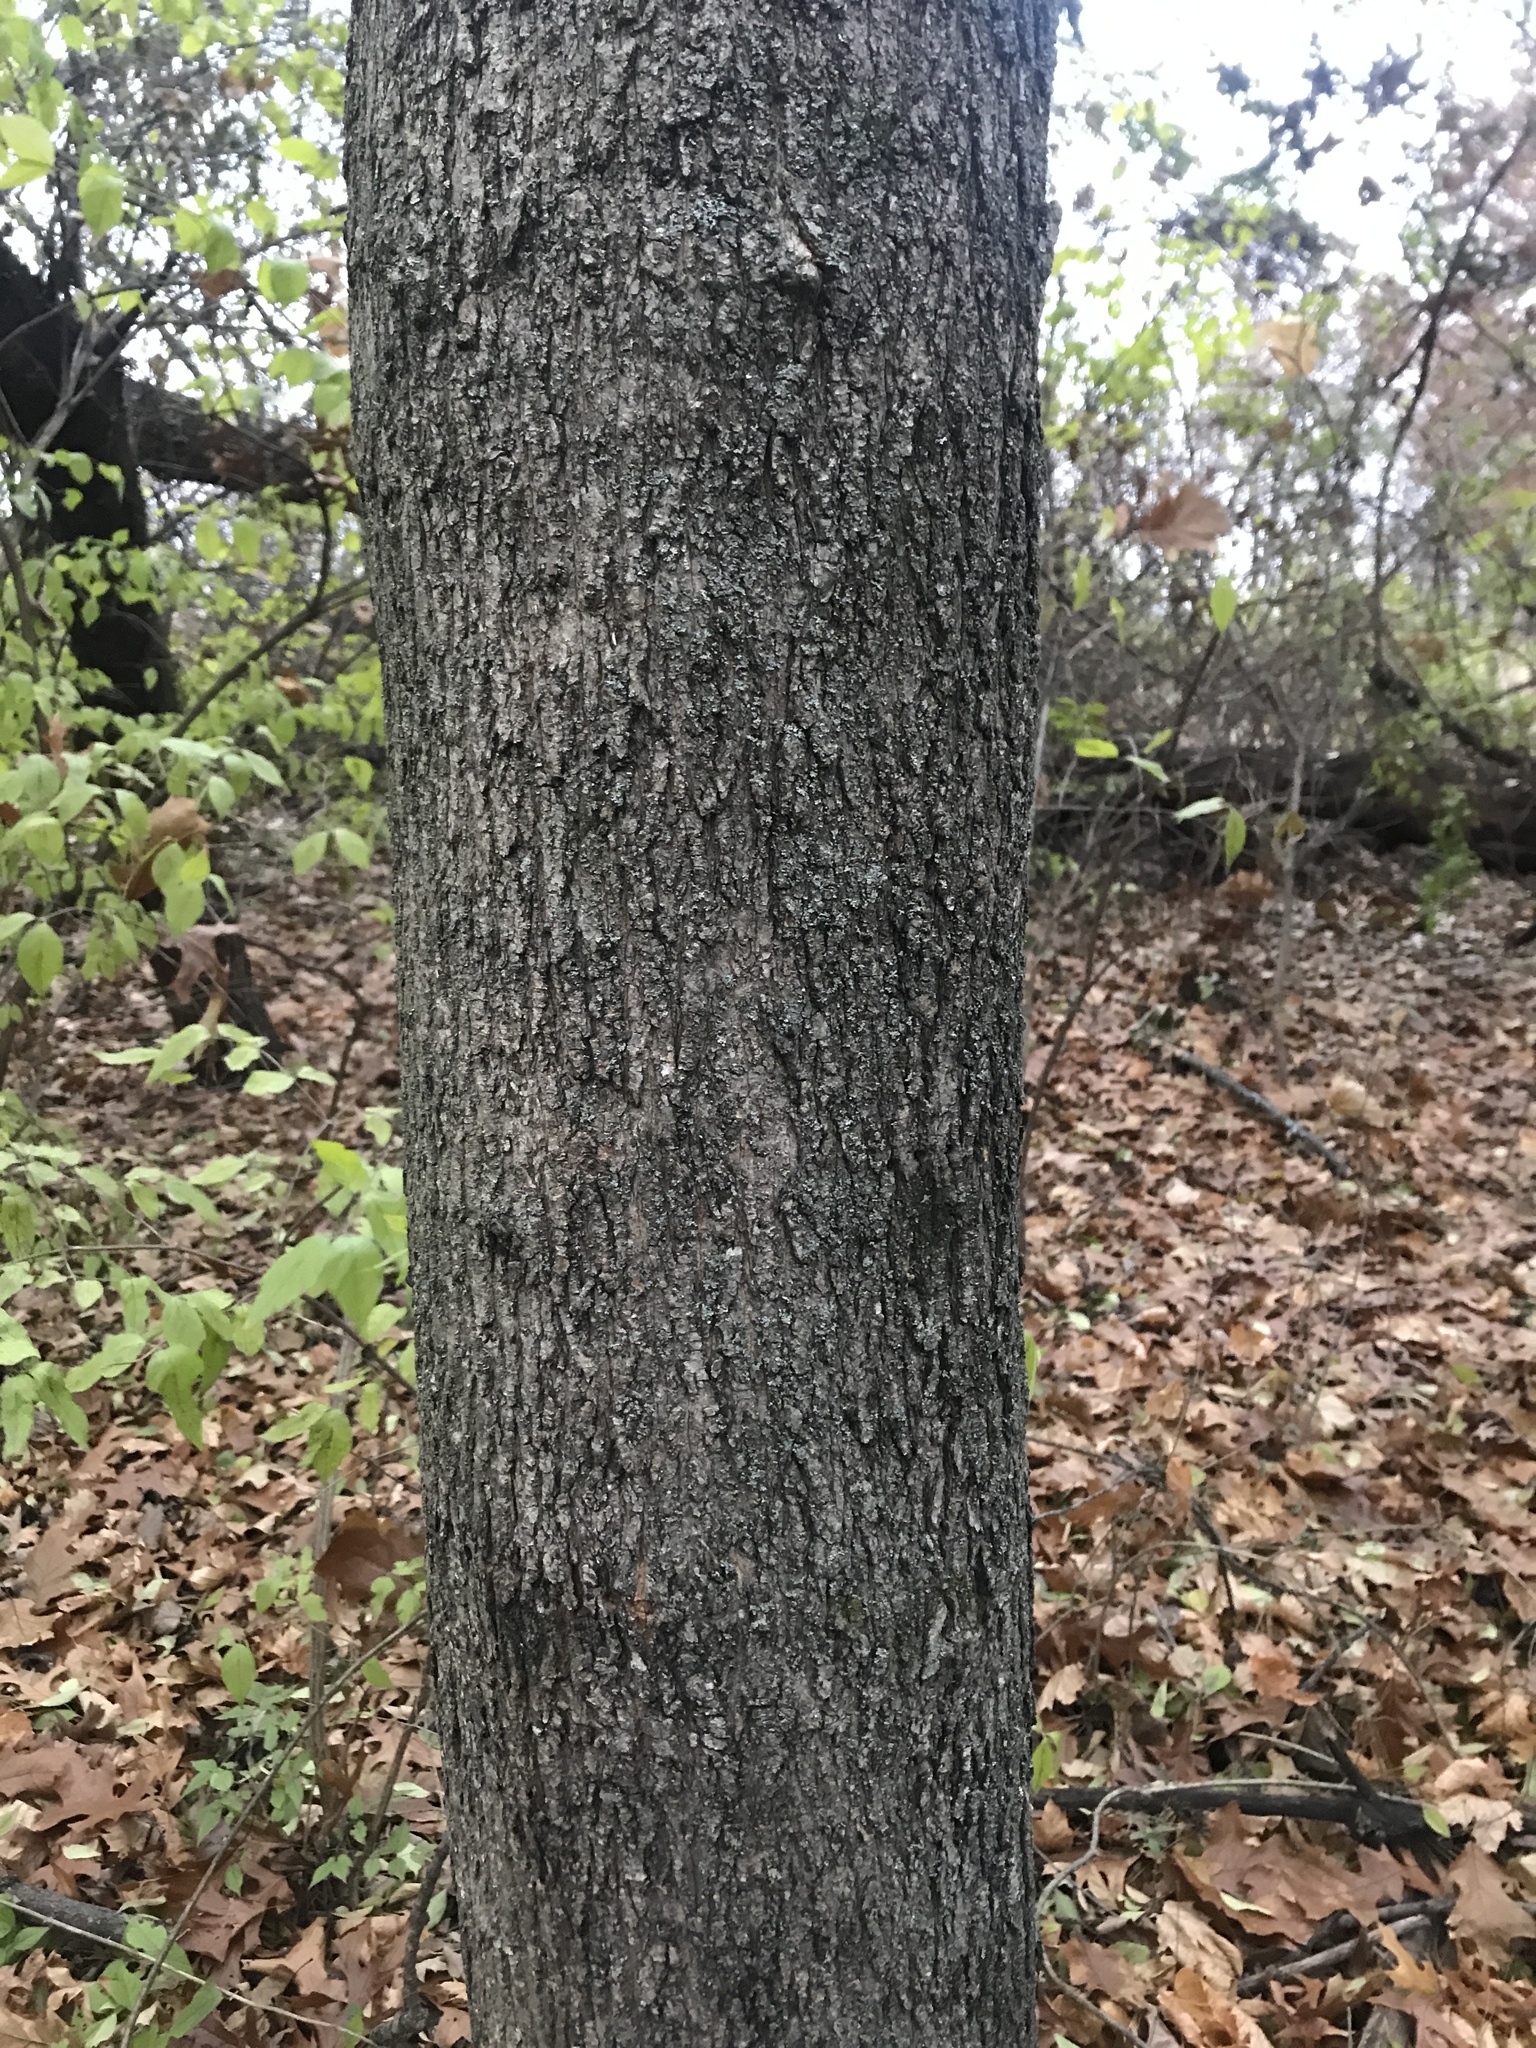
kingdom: Plantae
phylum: Tracheophyta
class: Magnoliopsida
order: Sapindales
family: Sapindaceae
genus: Acer
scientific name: Acer platanoides
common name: Norway maple
